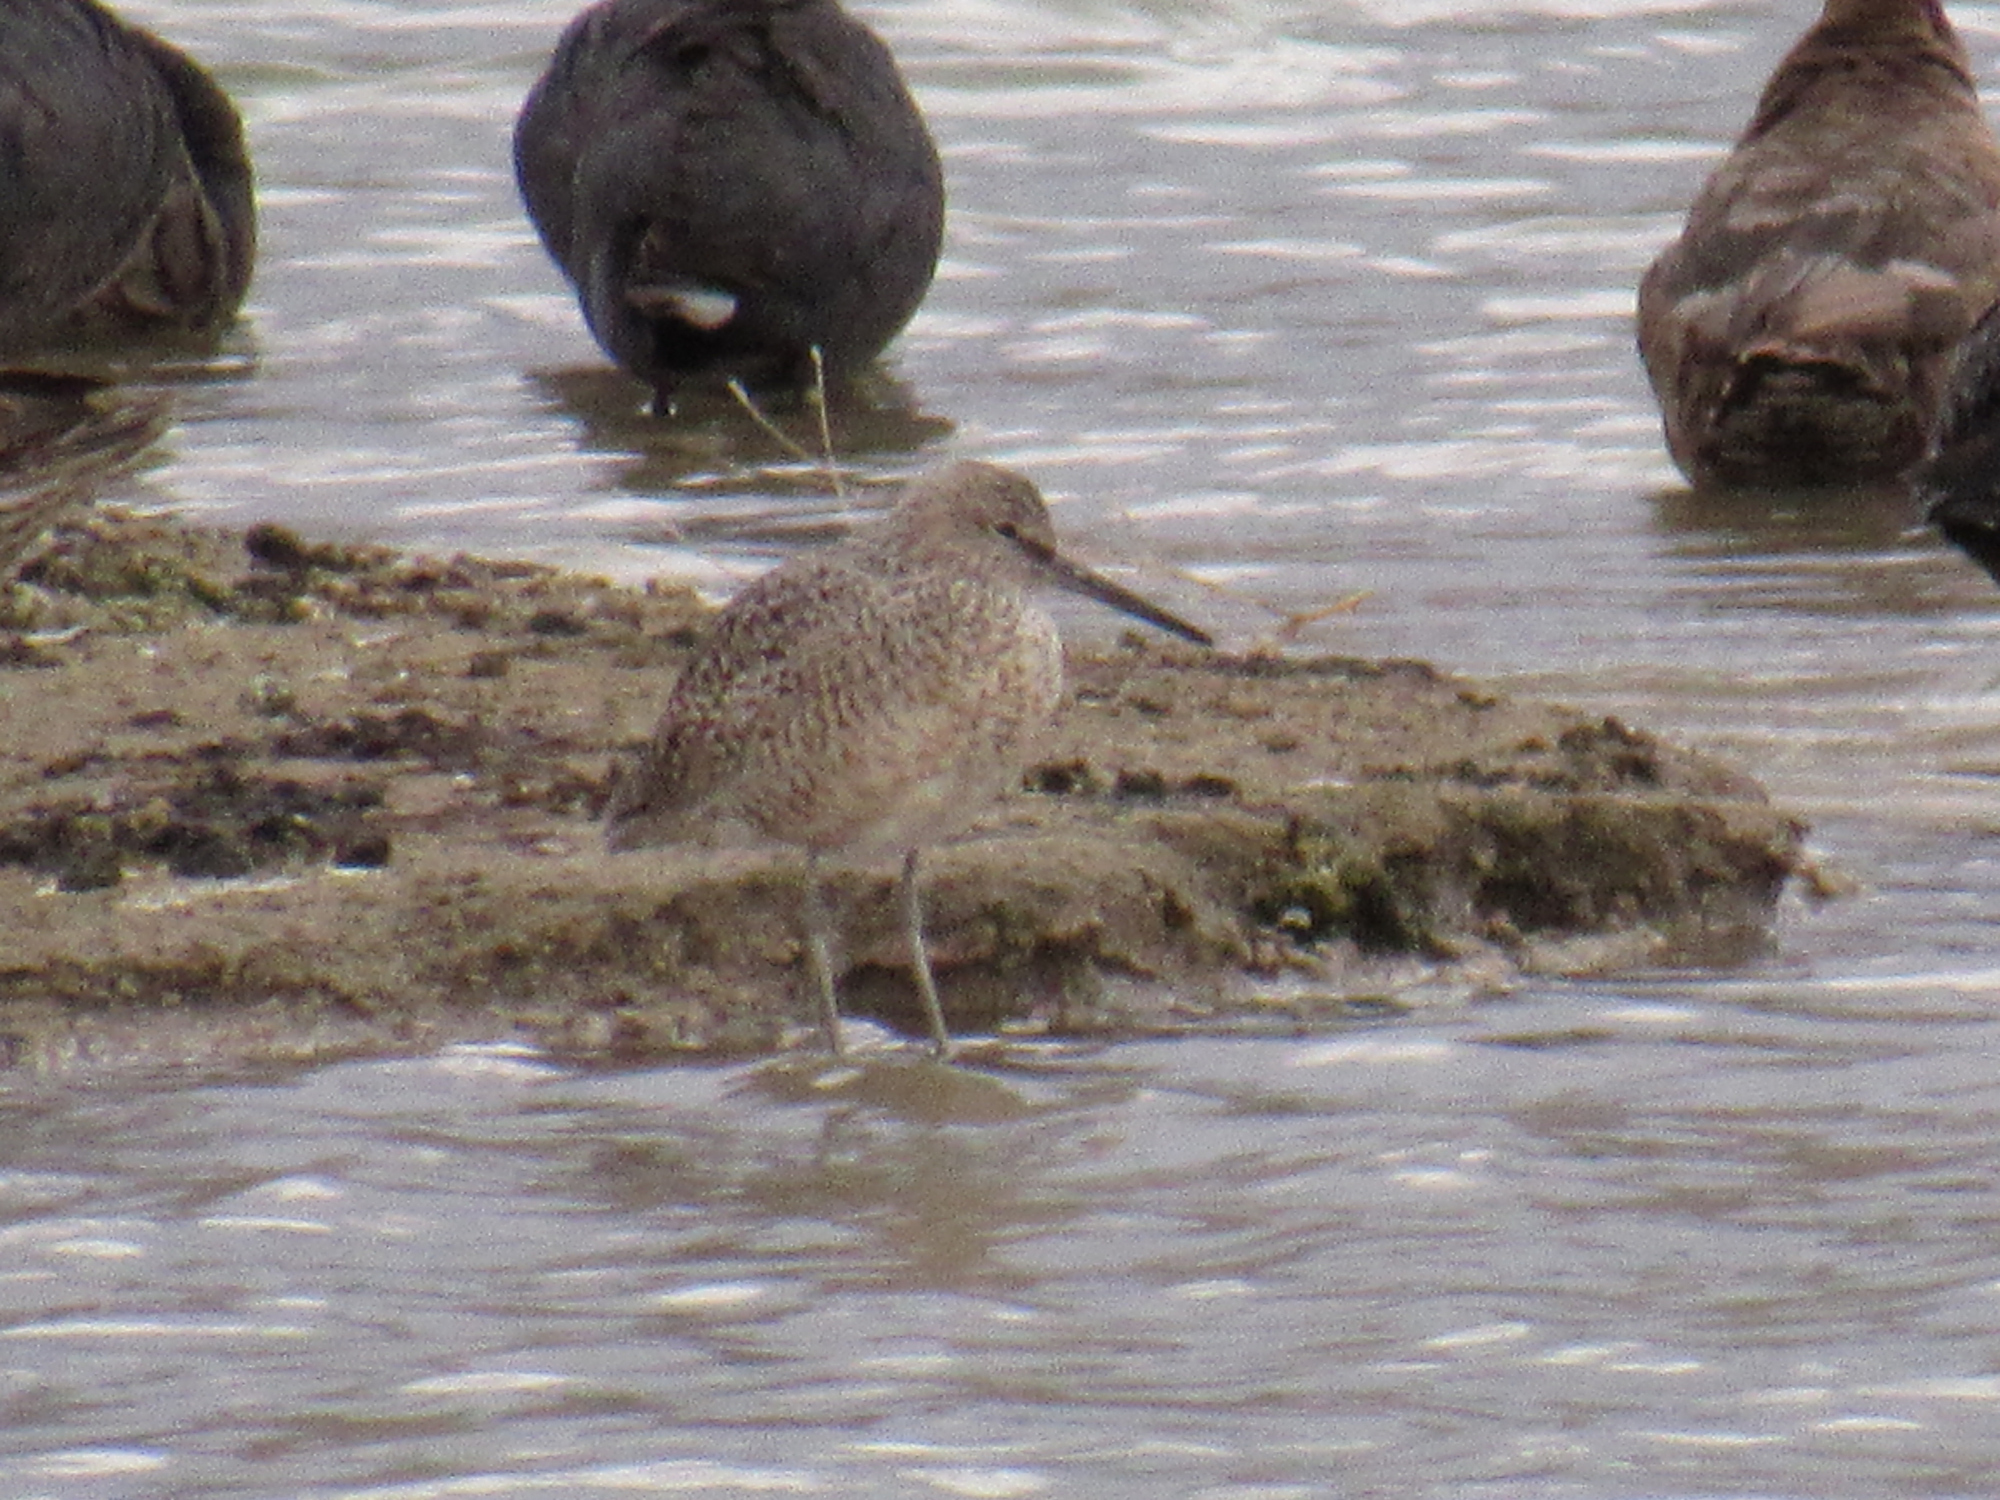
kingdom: Animalia
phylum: Chordata
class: Aves
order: Charadriiformes
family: Scolopacidae
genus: Tringa
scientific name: Tringa semipalmata
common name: Willet
